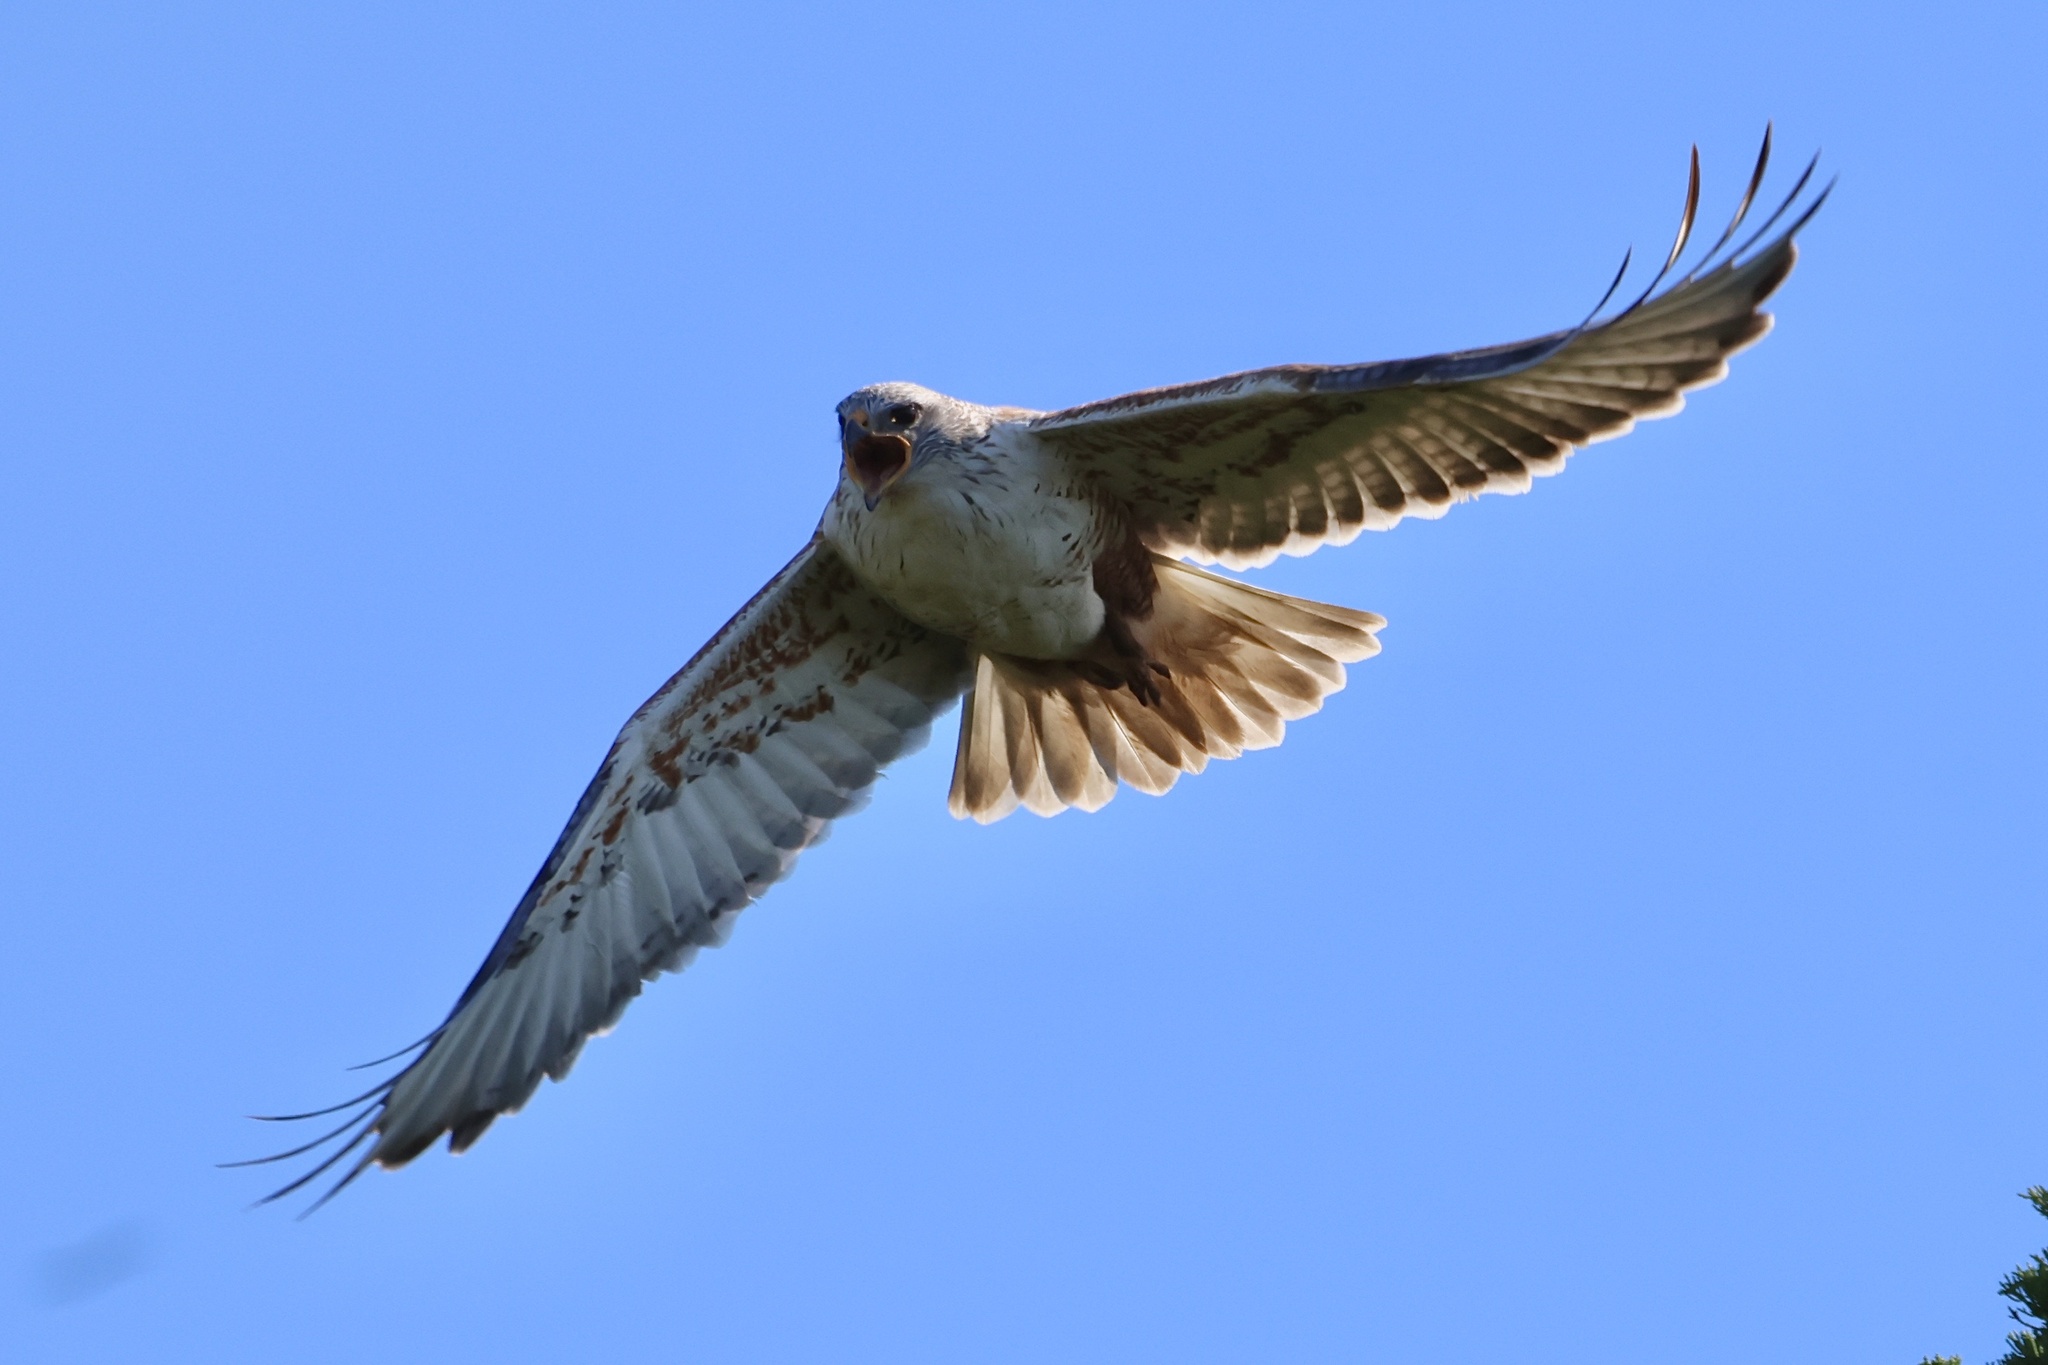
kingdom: Animalia
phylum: Chordata
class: Aves
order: Accipitriformes
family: Accipitridae
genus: Buteo
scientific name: Buteo regalis
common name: Ferruginous hawk
